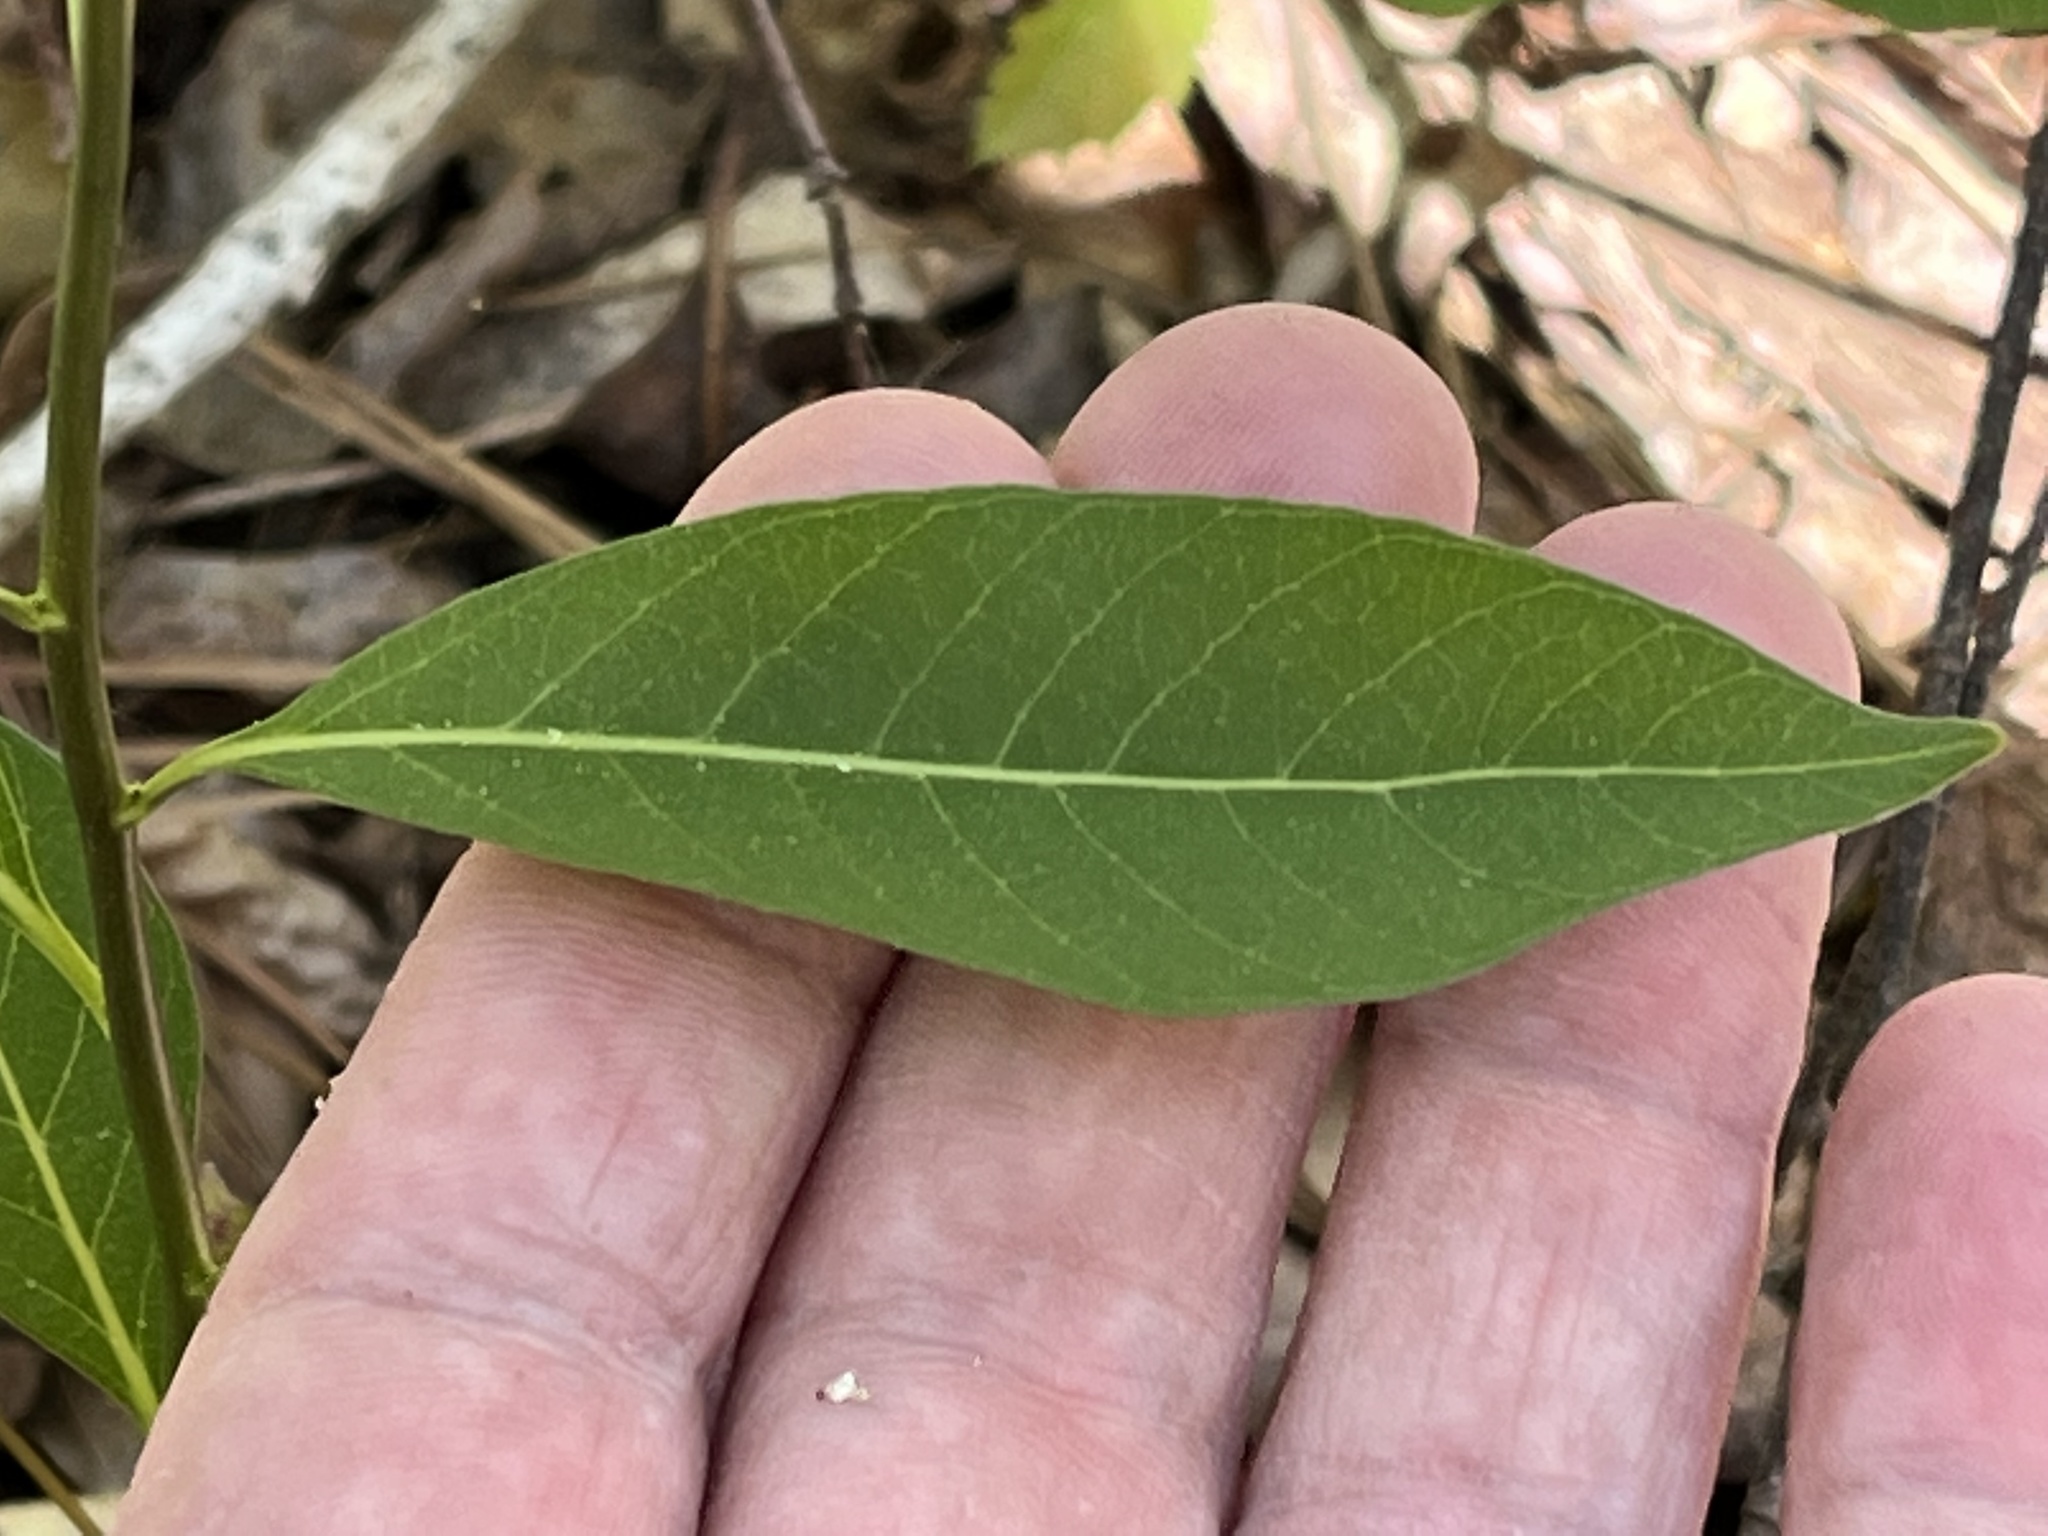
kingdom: Plantae
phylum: Tracheophyta
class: Magnoliopsida
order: Gentianales
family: Apocynaceae
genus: Amsonia
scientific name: Amsonia tabernaemontana
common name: Texas-star
